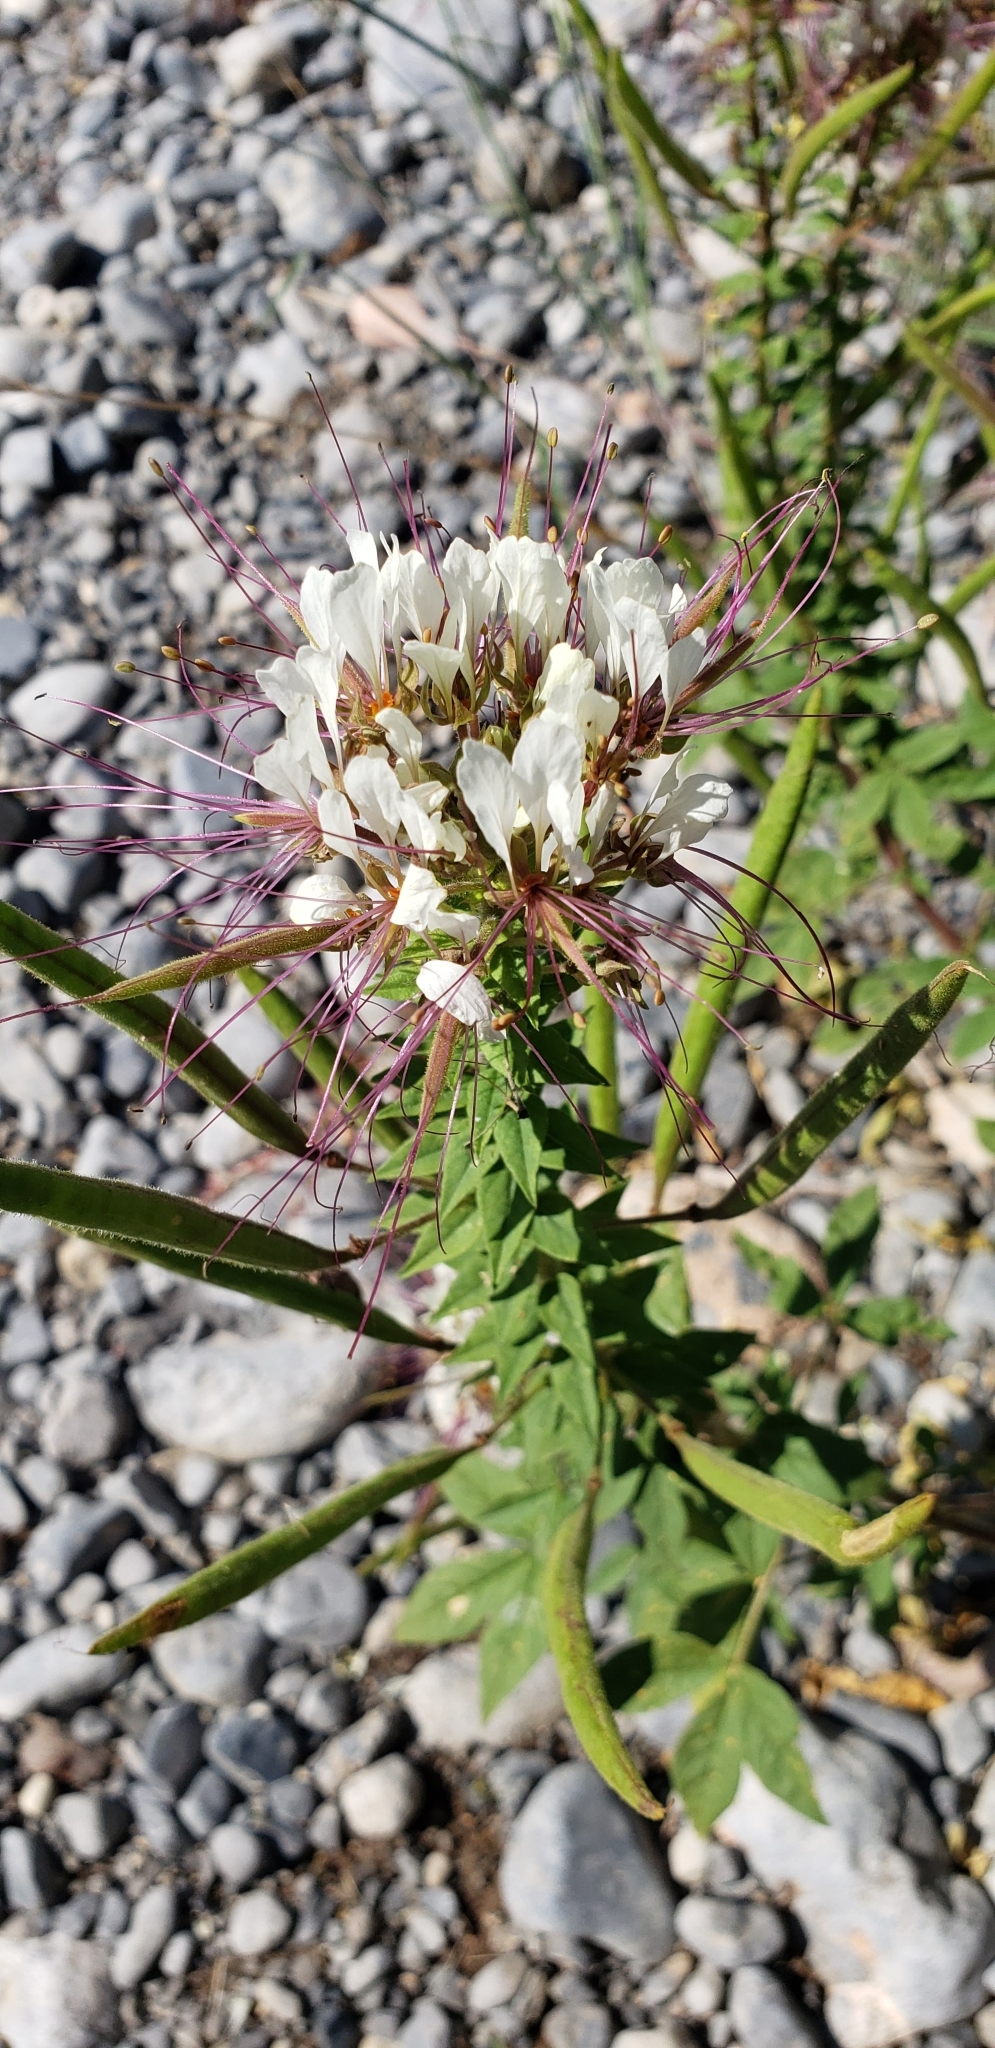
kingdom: Plantae
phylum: Tracheophyta
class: Magnoliopsida
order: Brassicales
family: Cleomaceae
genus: Polanisia
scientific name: Polanisia dodecandra
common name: Clammyweed
